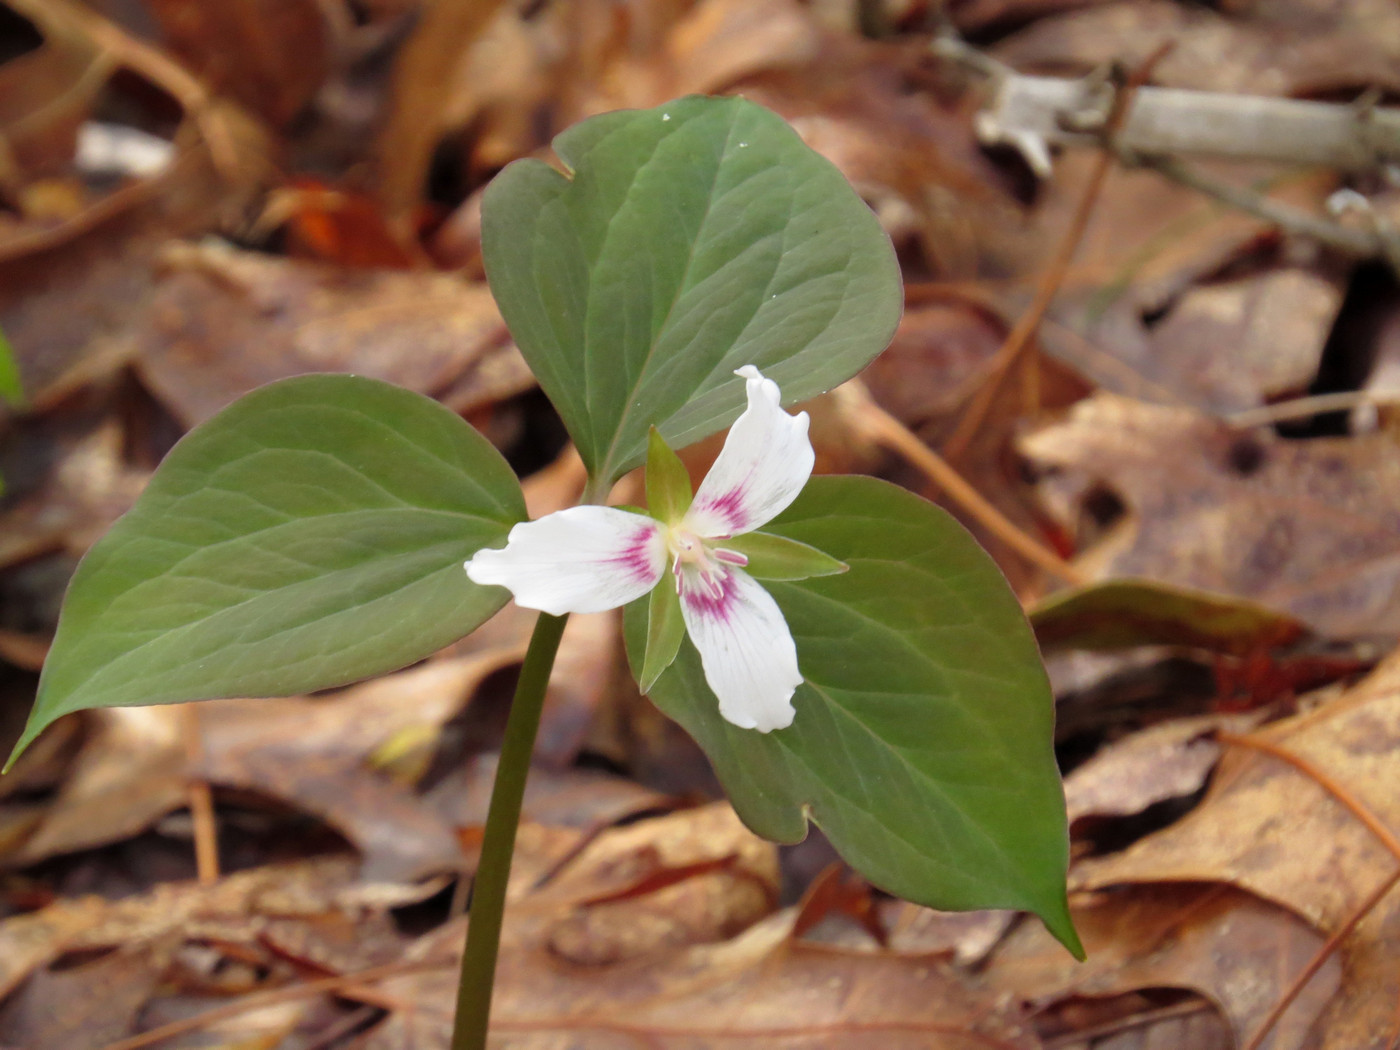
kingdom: Plantae
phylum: Tracheophyta
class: Liliopsida
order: Liliales
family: Melanthiaceae
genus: Trillium
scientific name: Trillium undulatum
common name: Paint trillium
